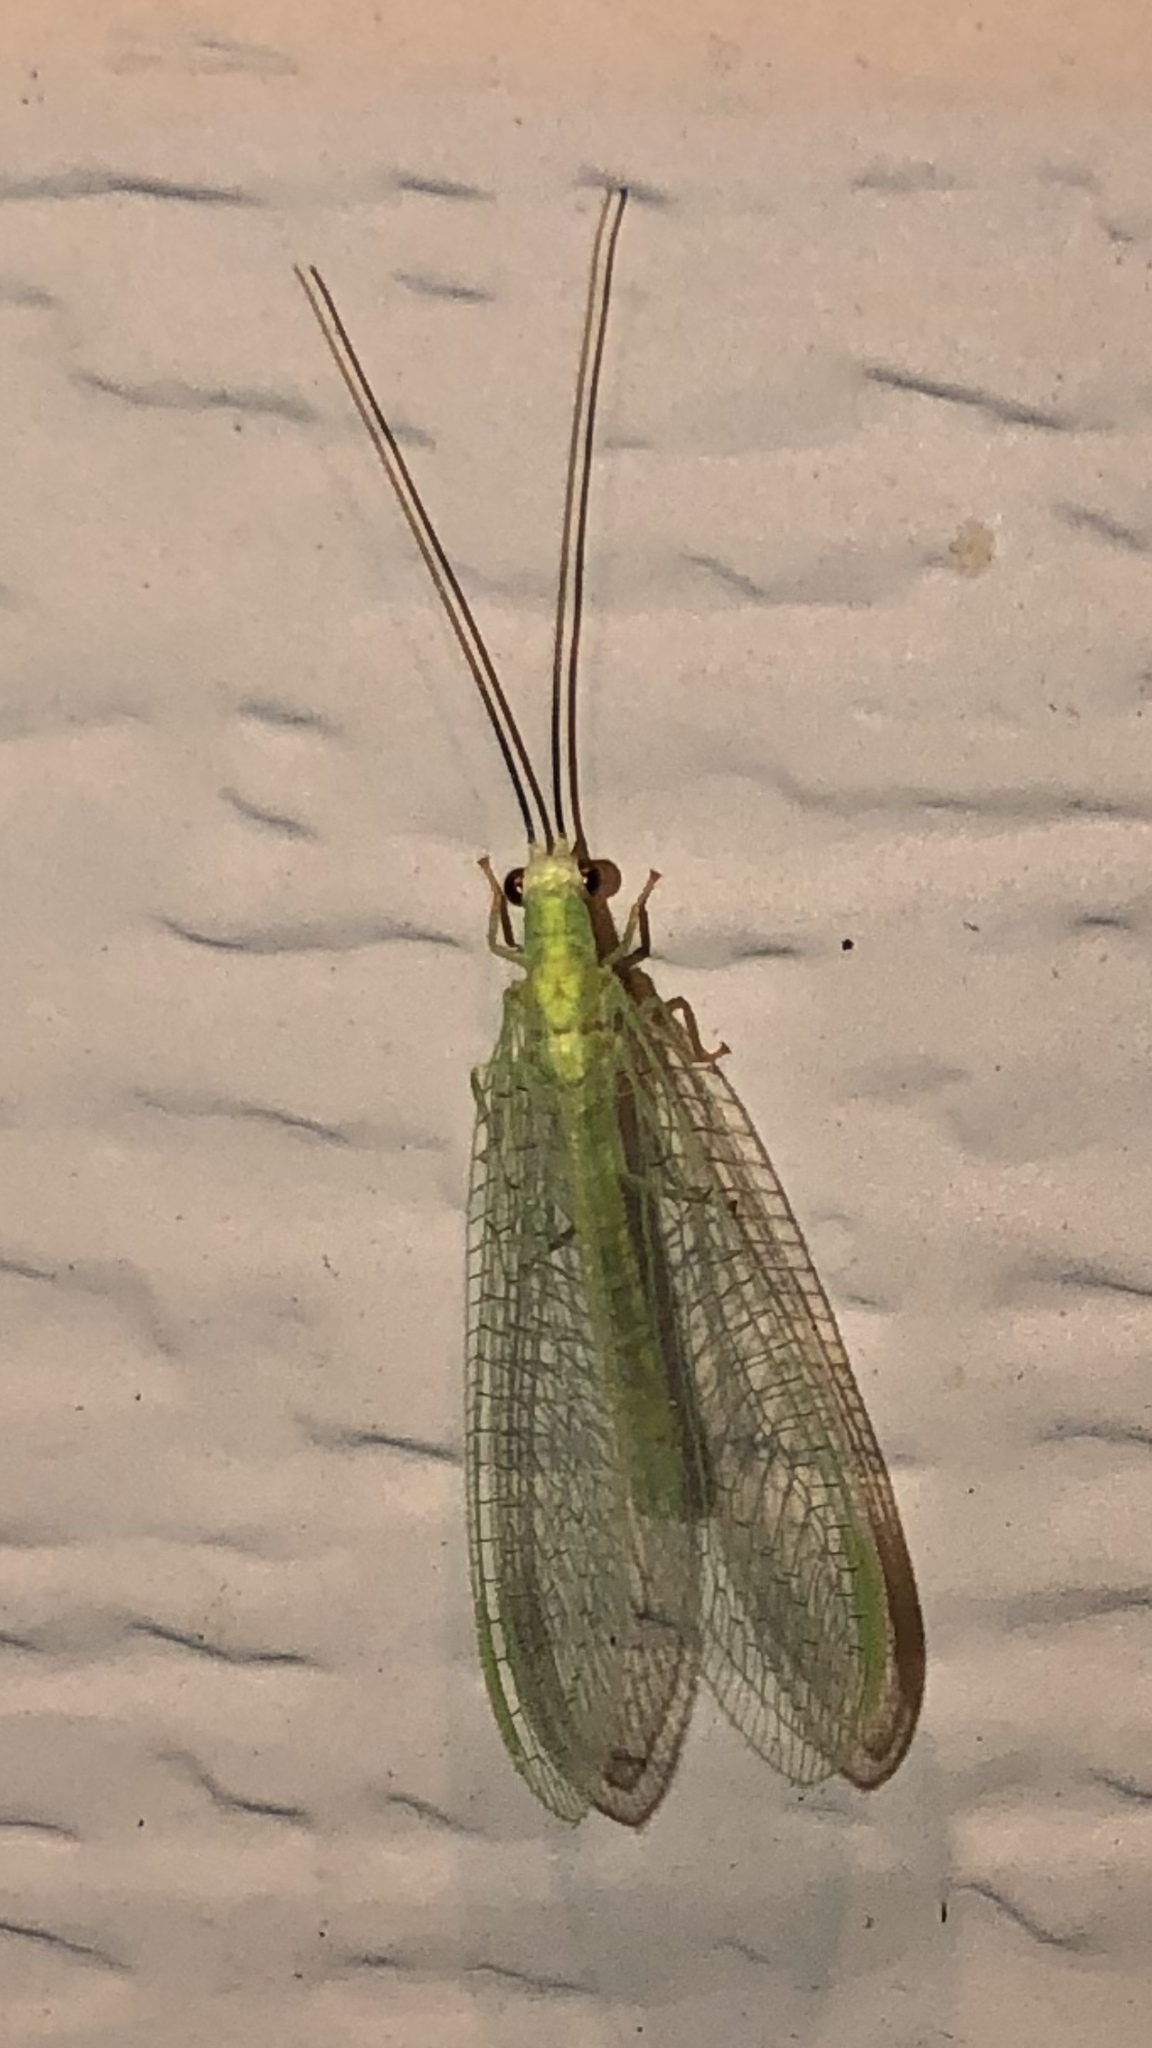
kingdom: Animalia
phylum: Arthropoda
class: Insecta
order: Neuroptera
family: Chrysopidae
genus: Chrysopa
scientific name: Chrysopa nigricornis
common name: Black-horned green lacewing
